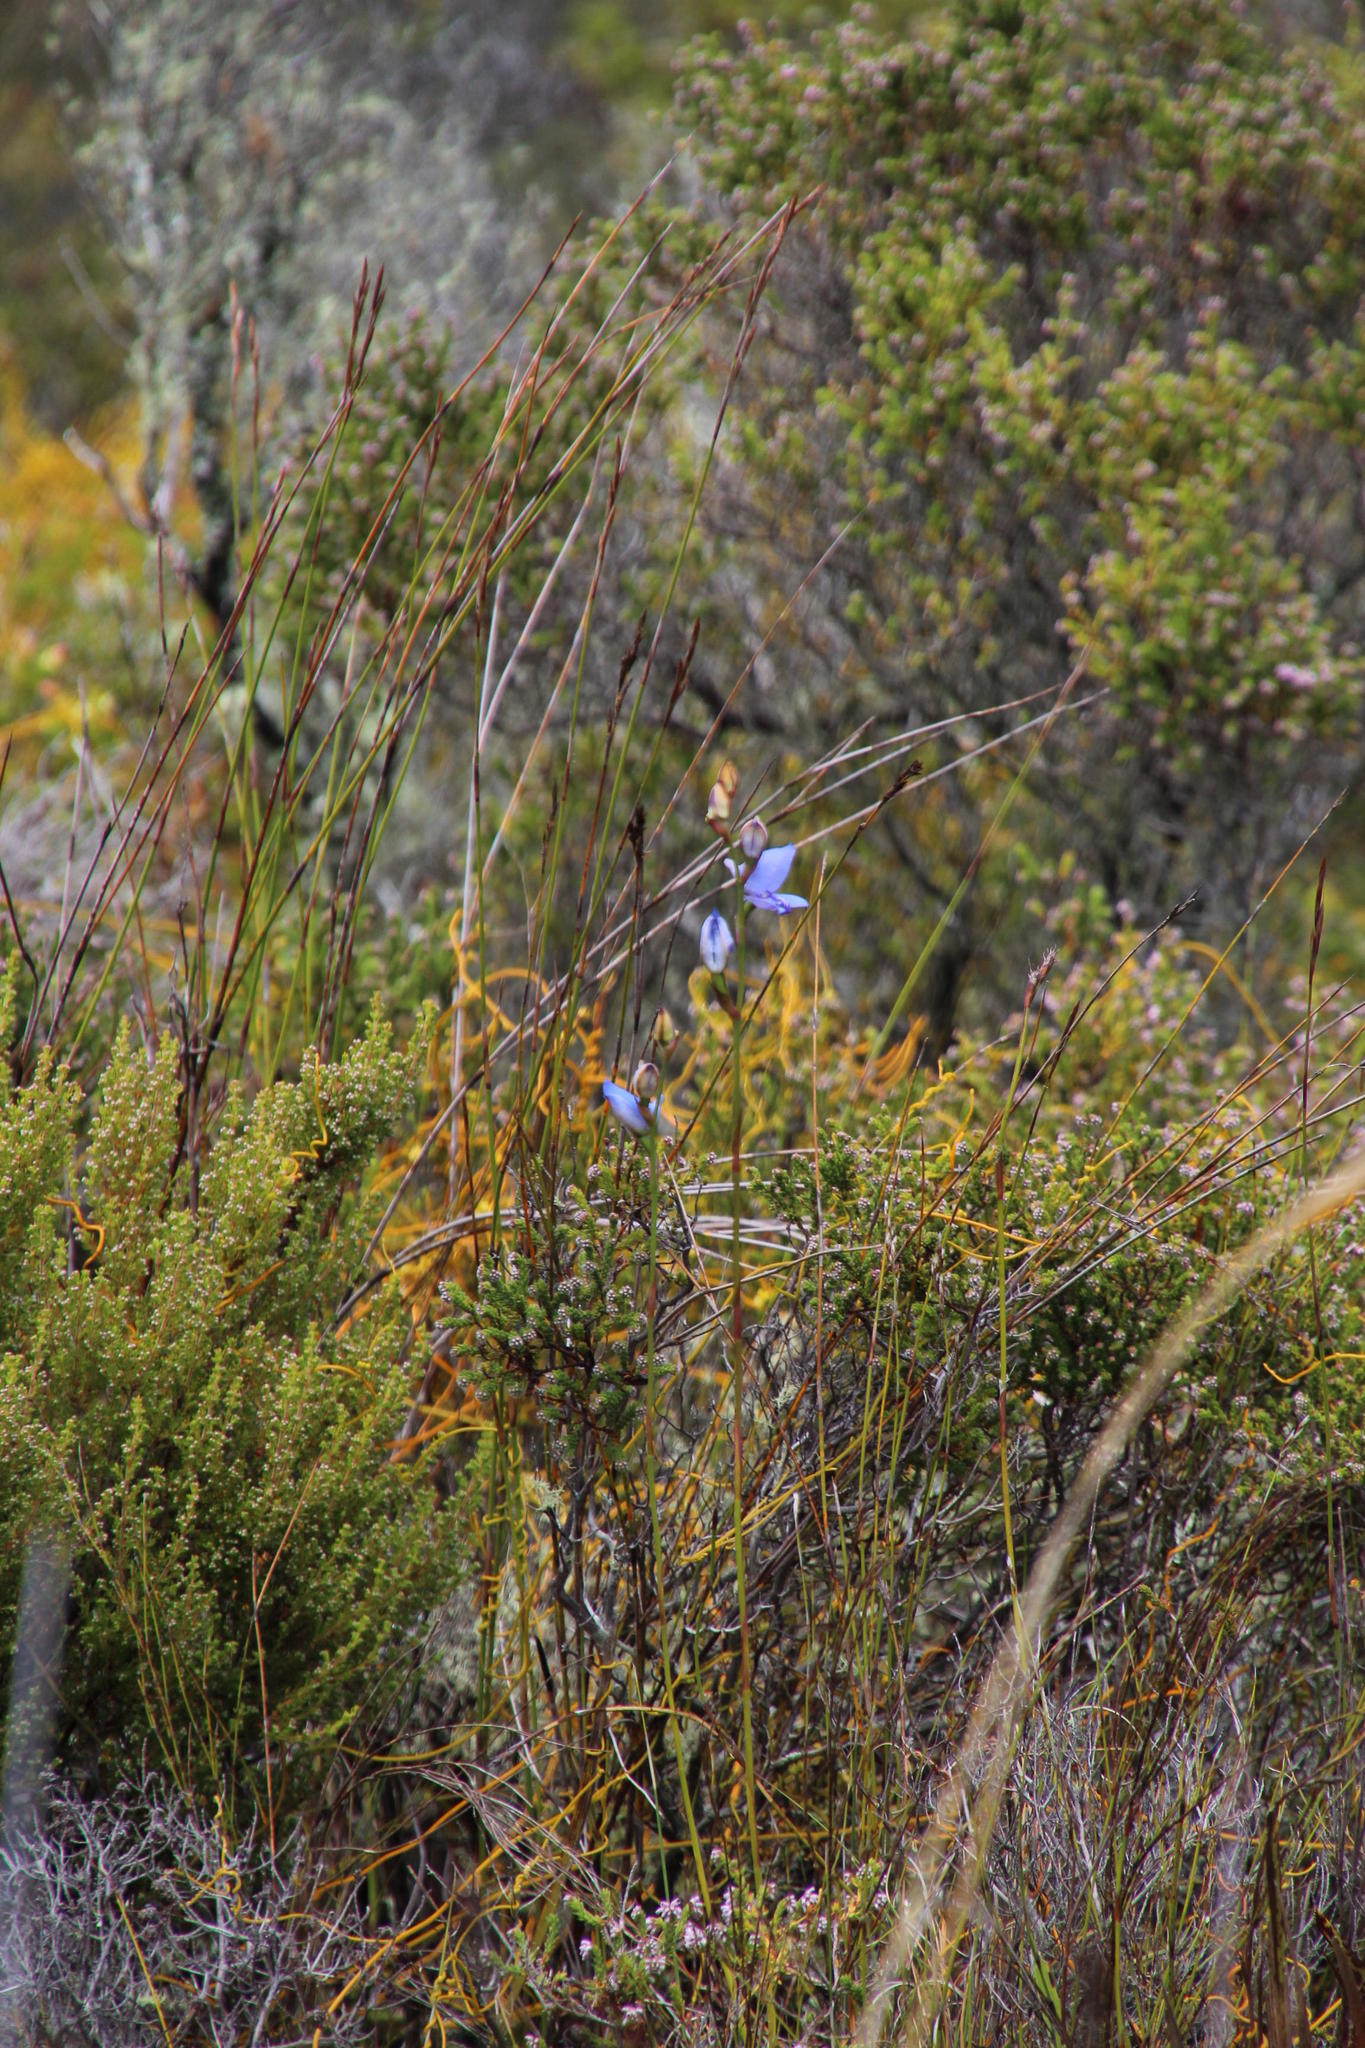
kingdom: Plantae
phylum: Tracheophyta
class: Liliopsida
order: Asparagales
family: Orchidaceae
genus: Disa
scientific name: Disa graminifolia
